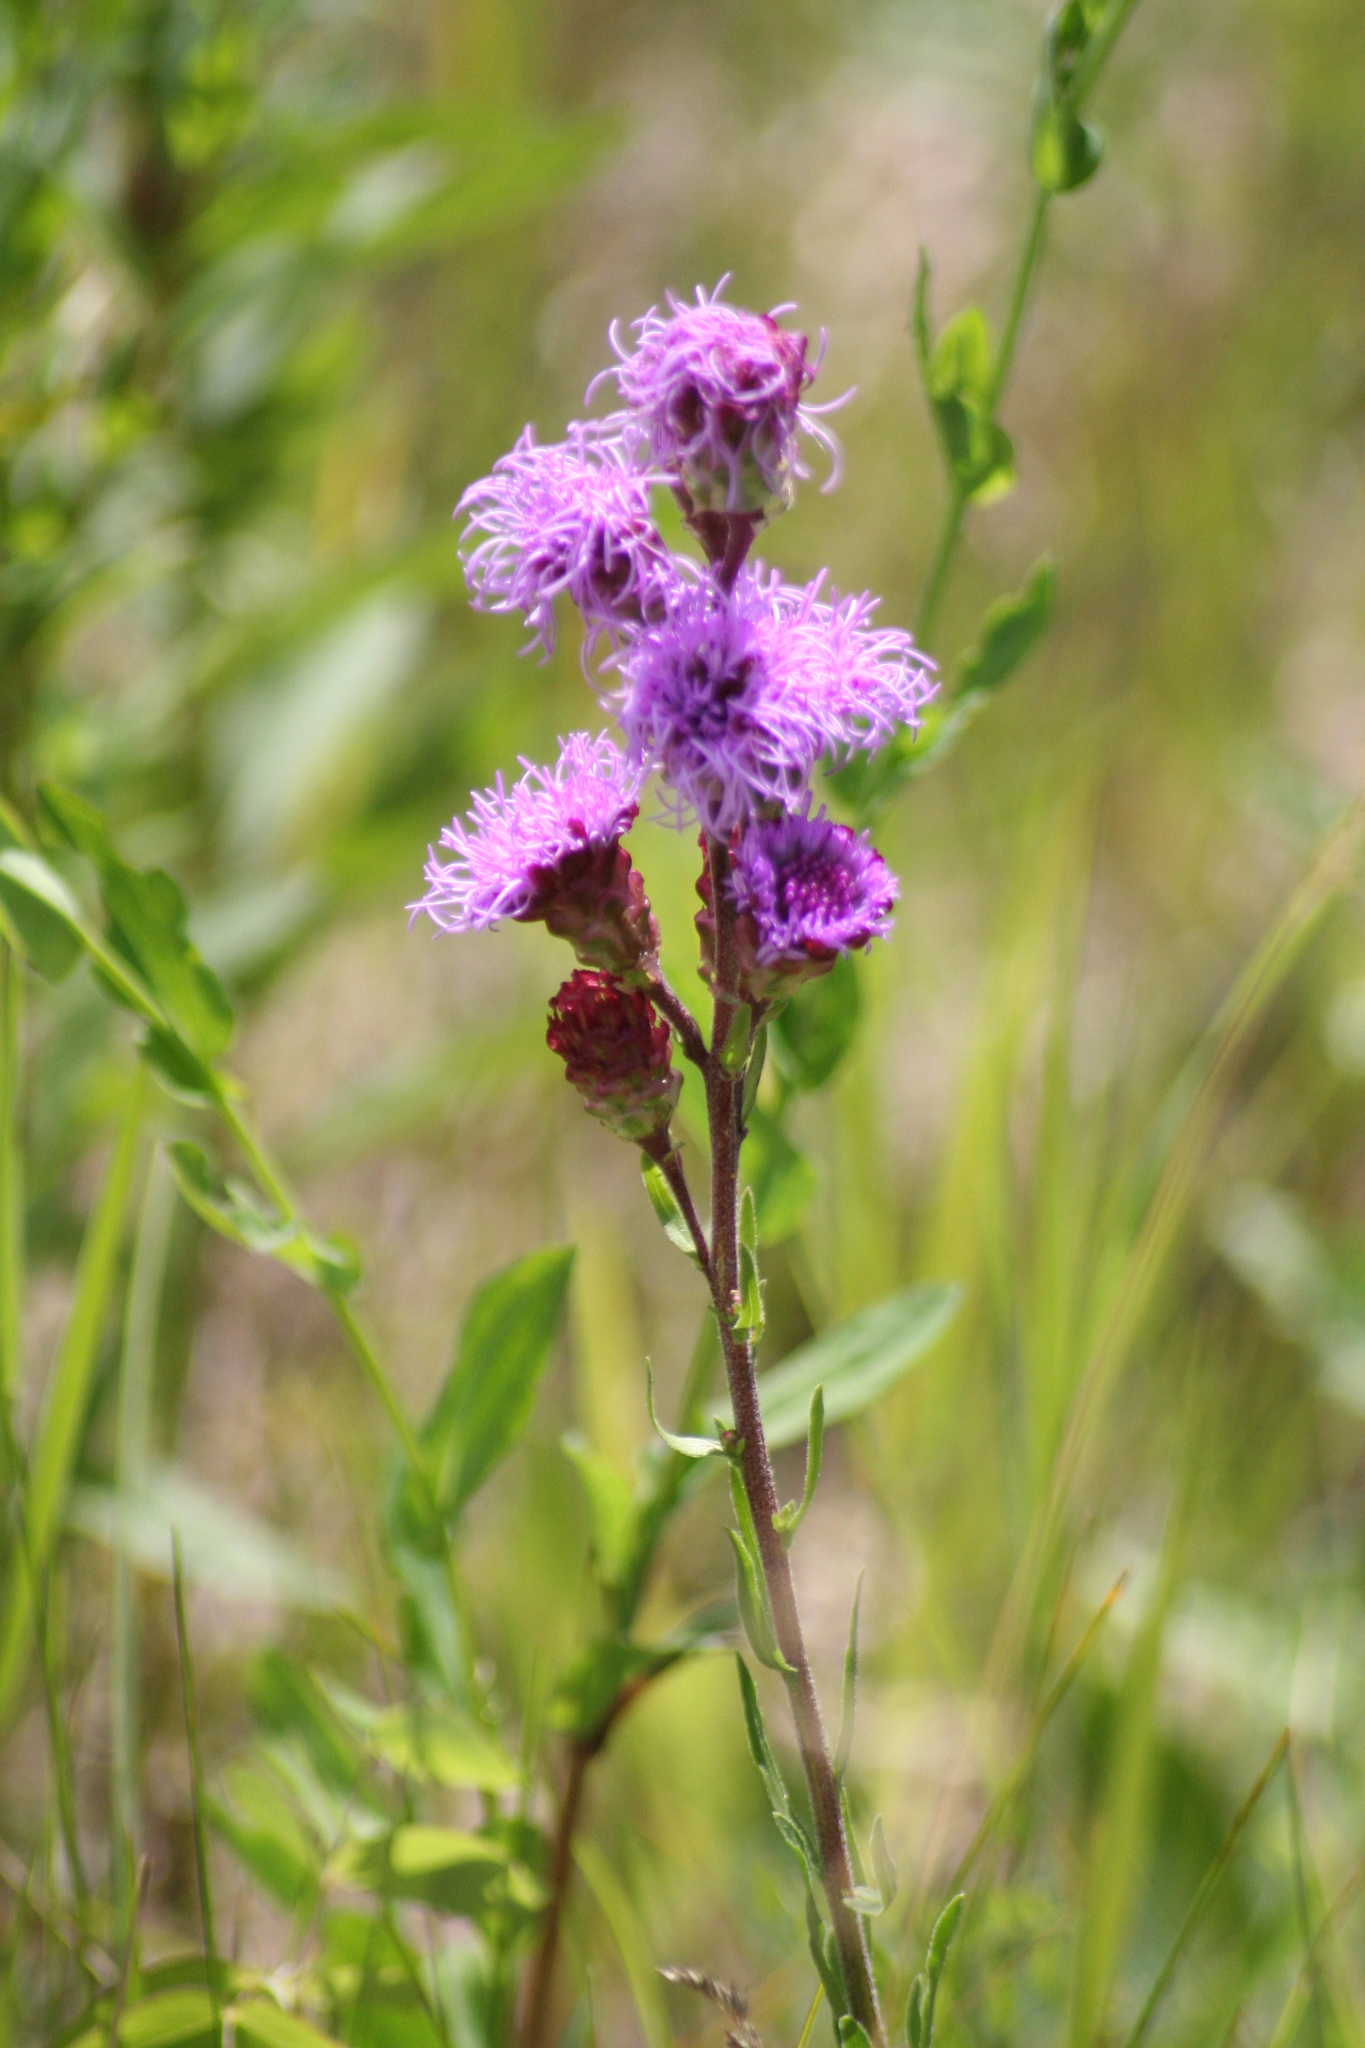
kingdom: Plantae
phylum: Tracheophyta
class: Magnoliopsida
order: Asterales
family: Asteraceae
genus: Liatris
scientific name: Liatris ligulistylis
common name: Northern plains gayfeather
